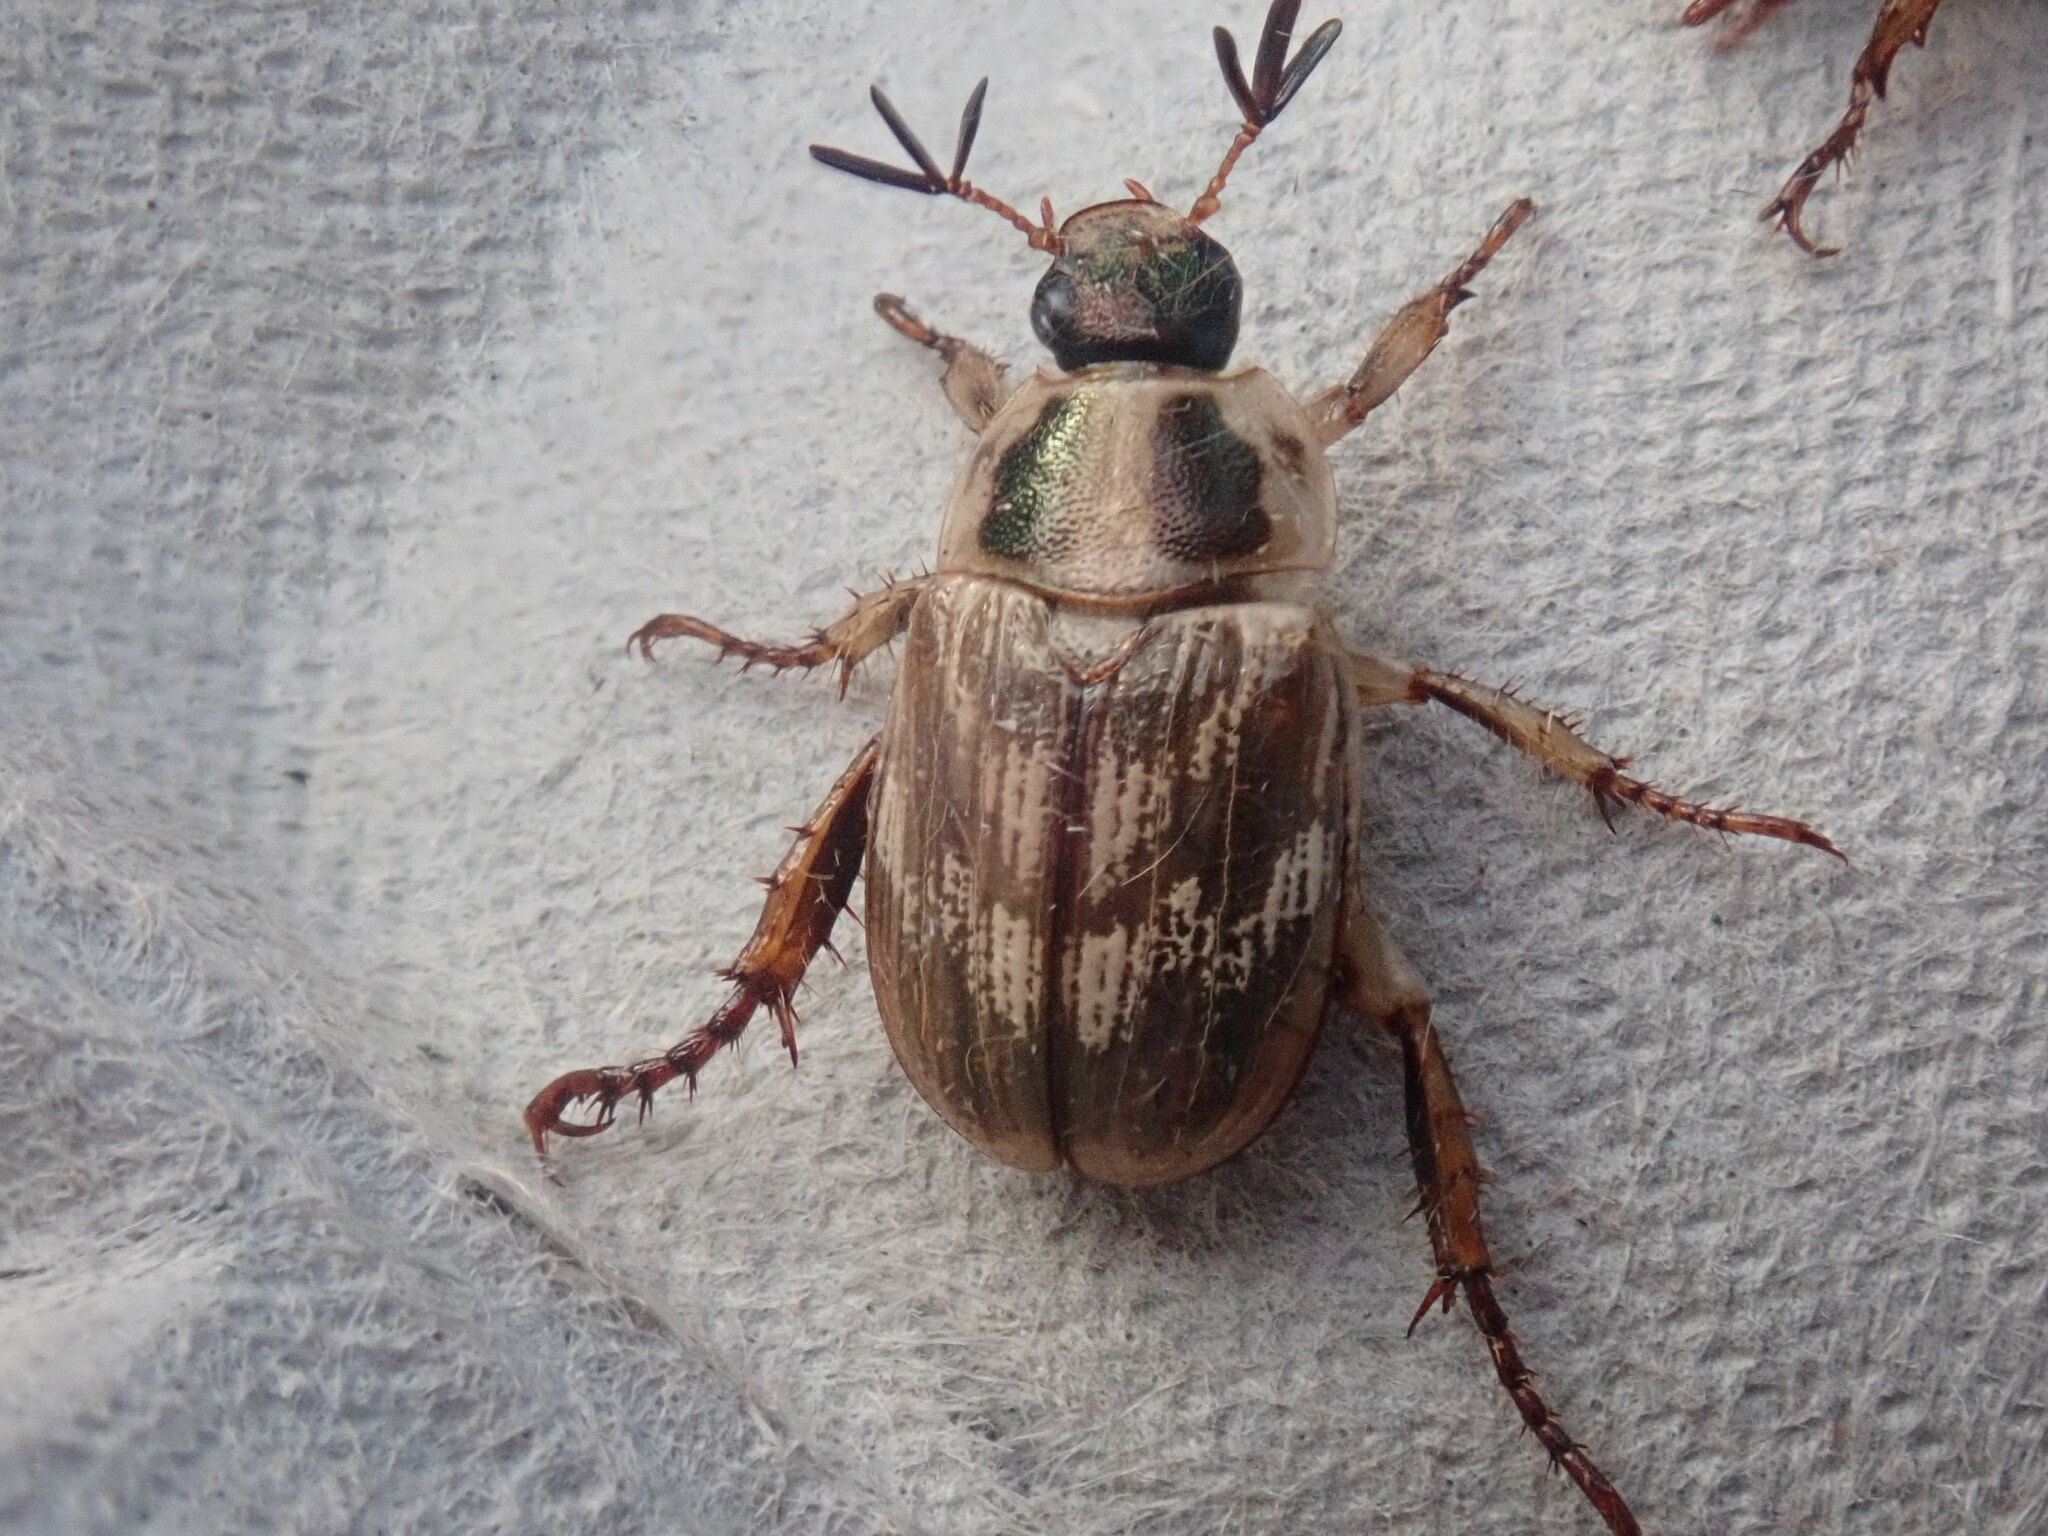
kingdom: Animalia
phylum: Arthropoda
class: Insecta
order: Coleoptera
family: Scarabaeidae
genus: Exomala
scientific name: Exomala orientalis
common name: Oriental beetle
